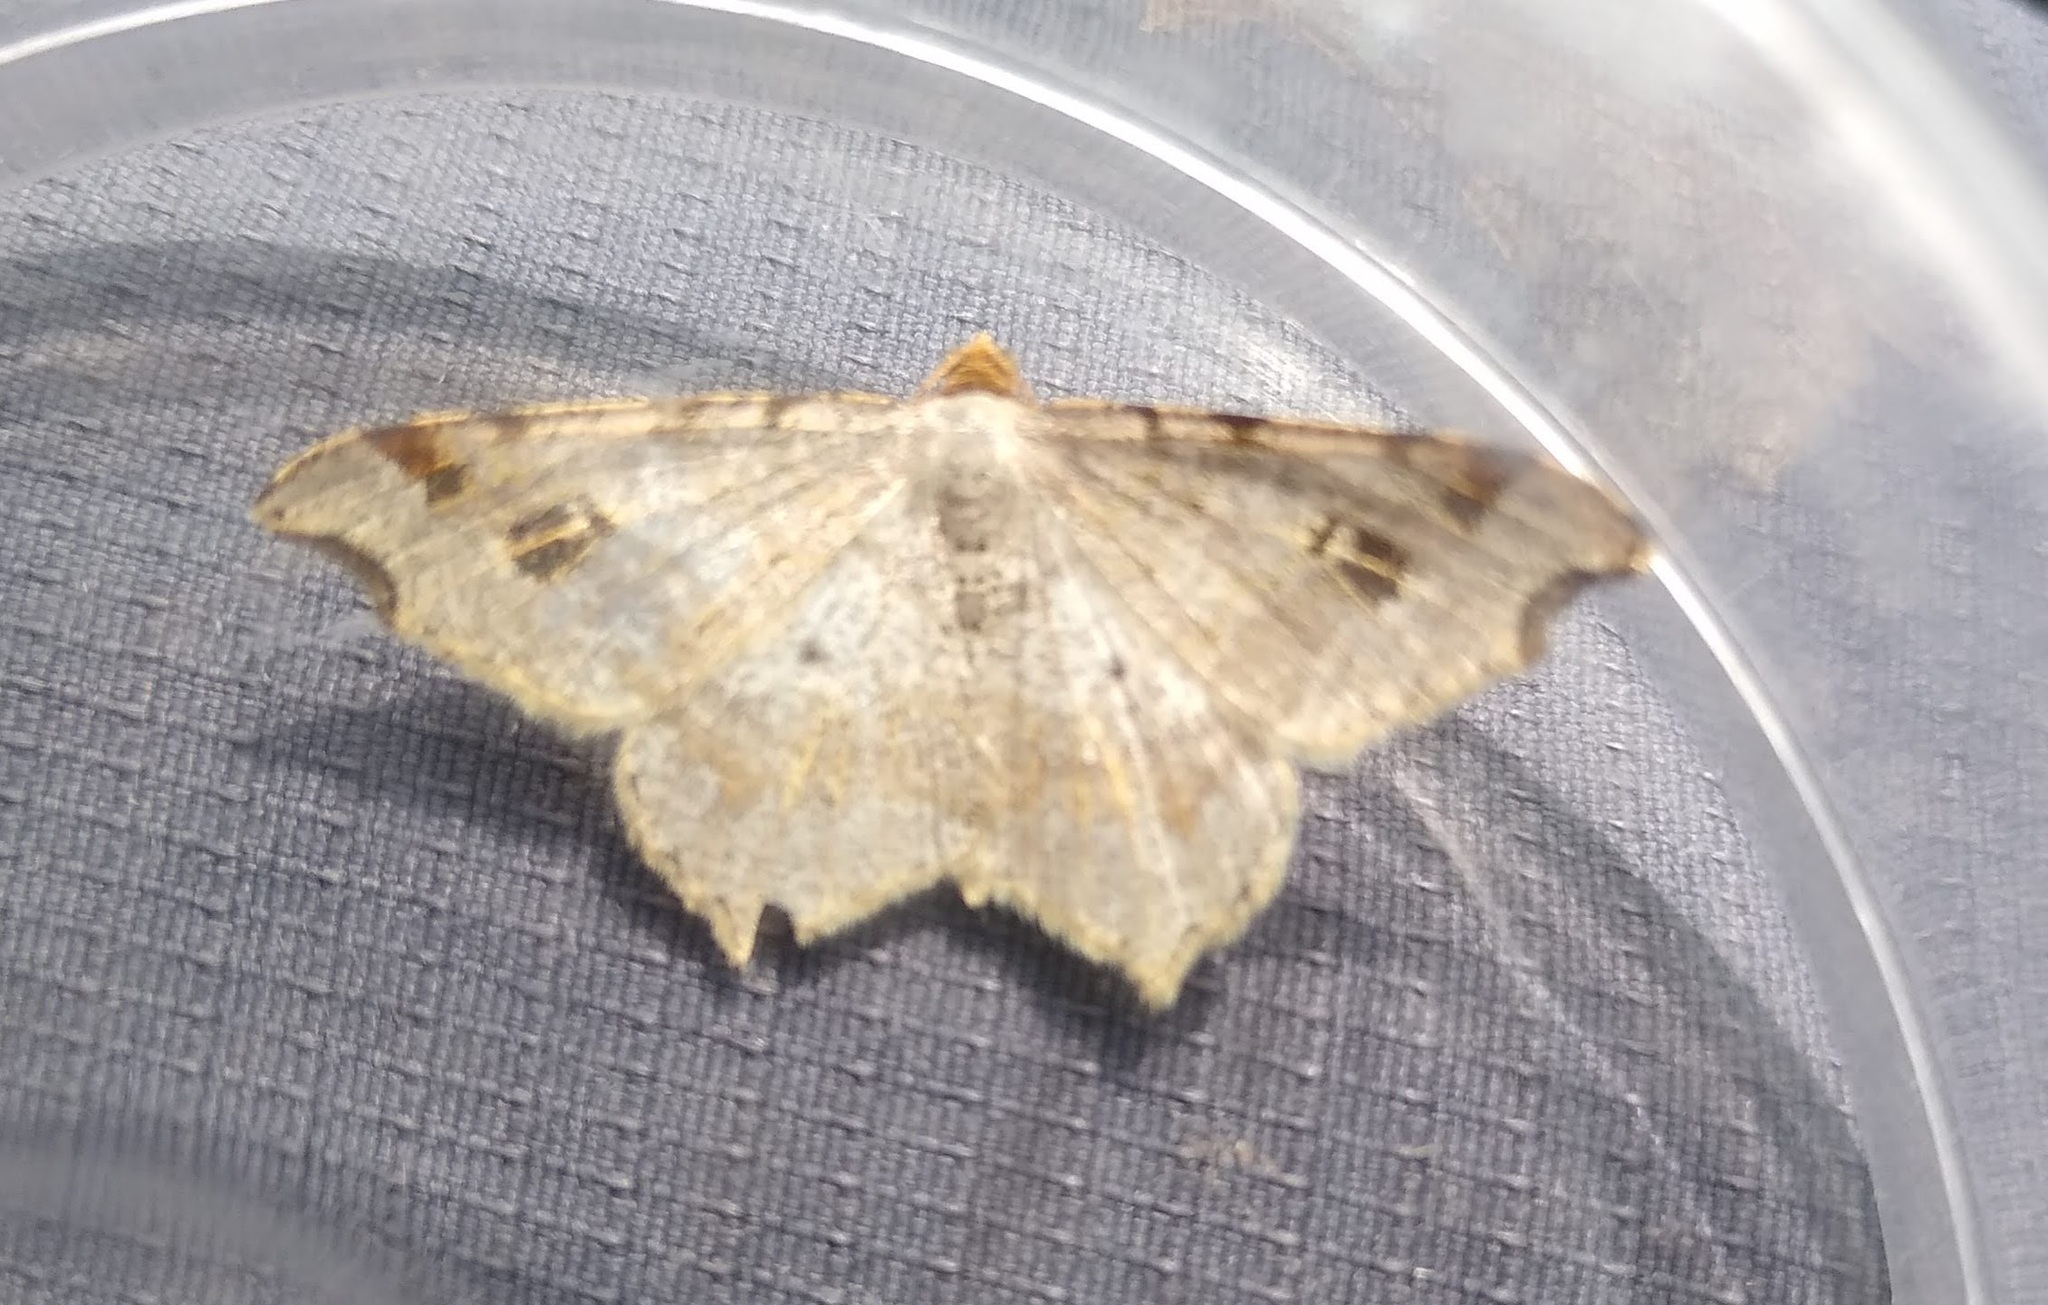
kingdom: Animalia
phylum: Arthropoda
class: Insecta
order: Lepidoptera
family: Geometridae
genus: Macaria
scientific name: Macaria alternata
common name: Sharp-angled peacock
